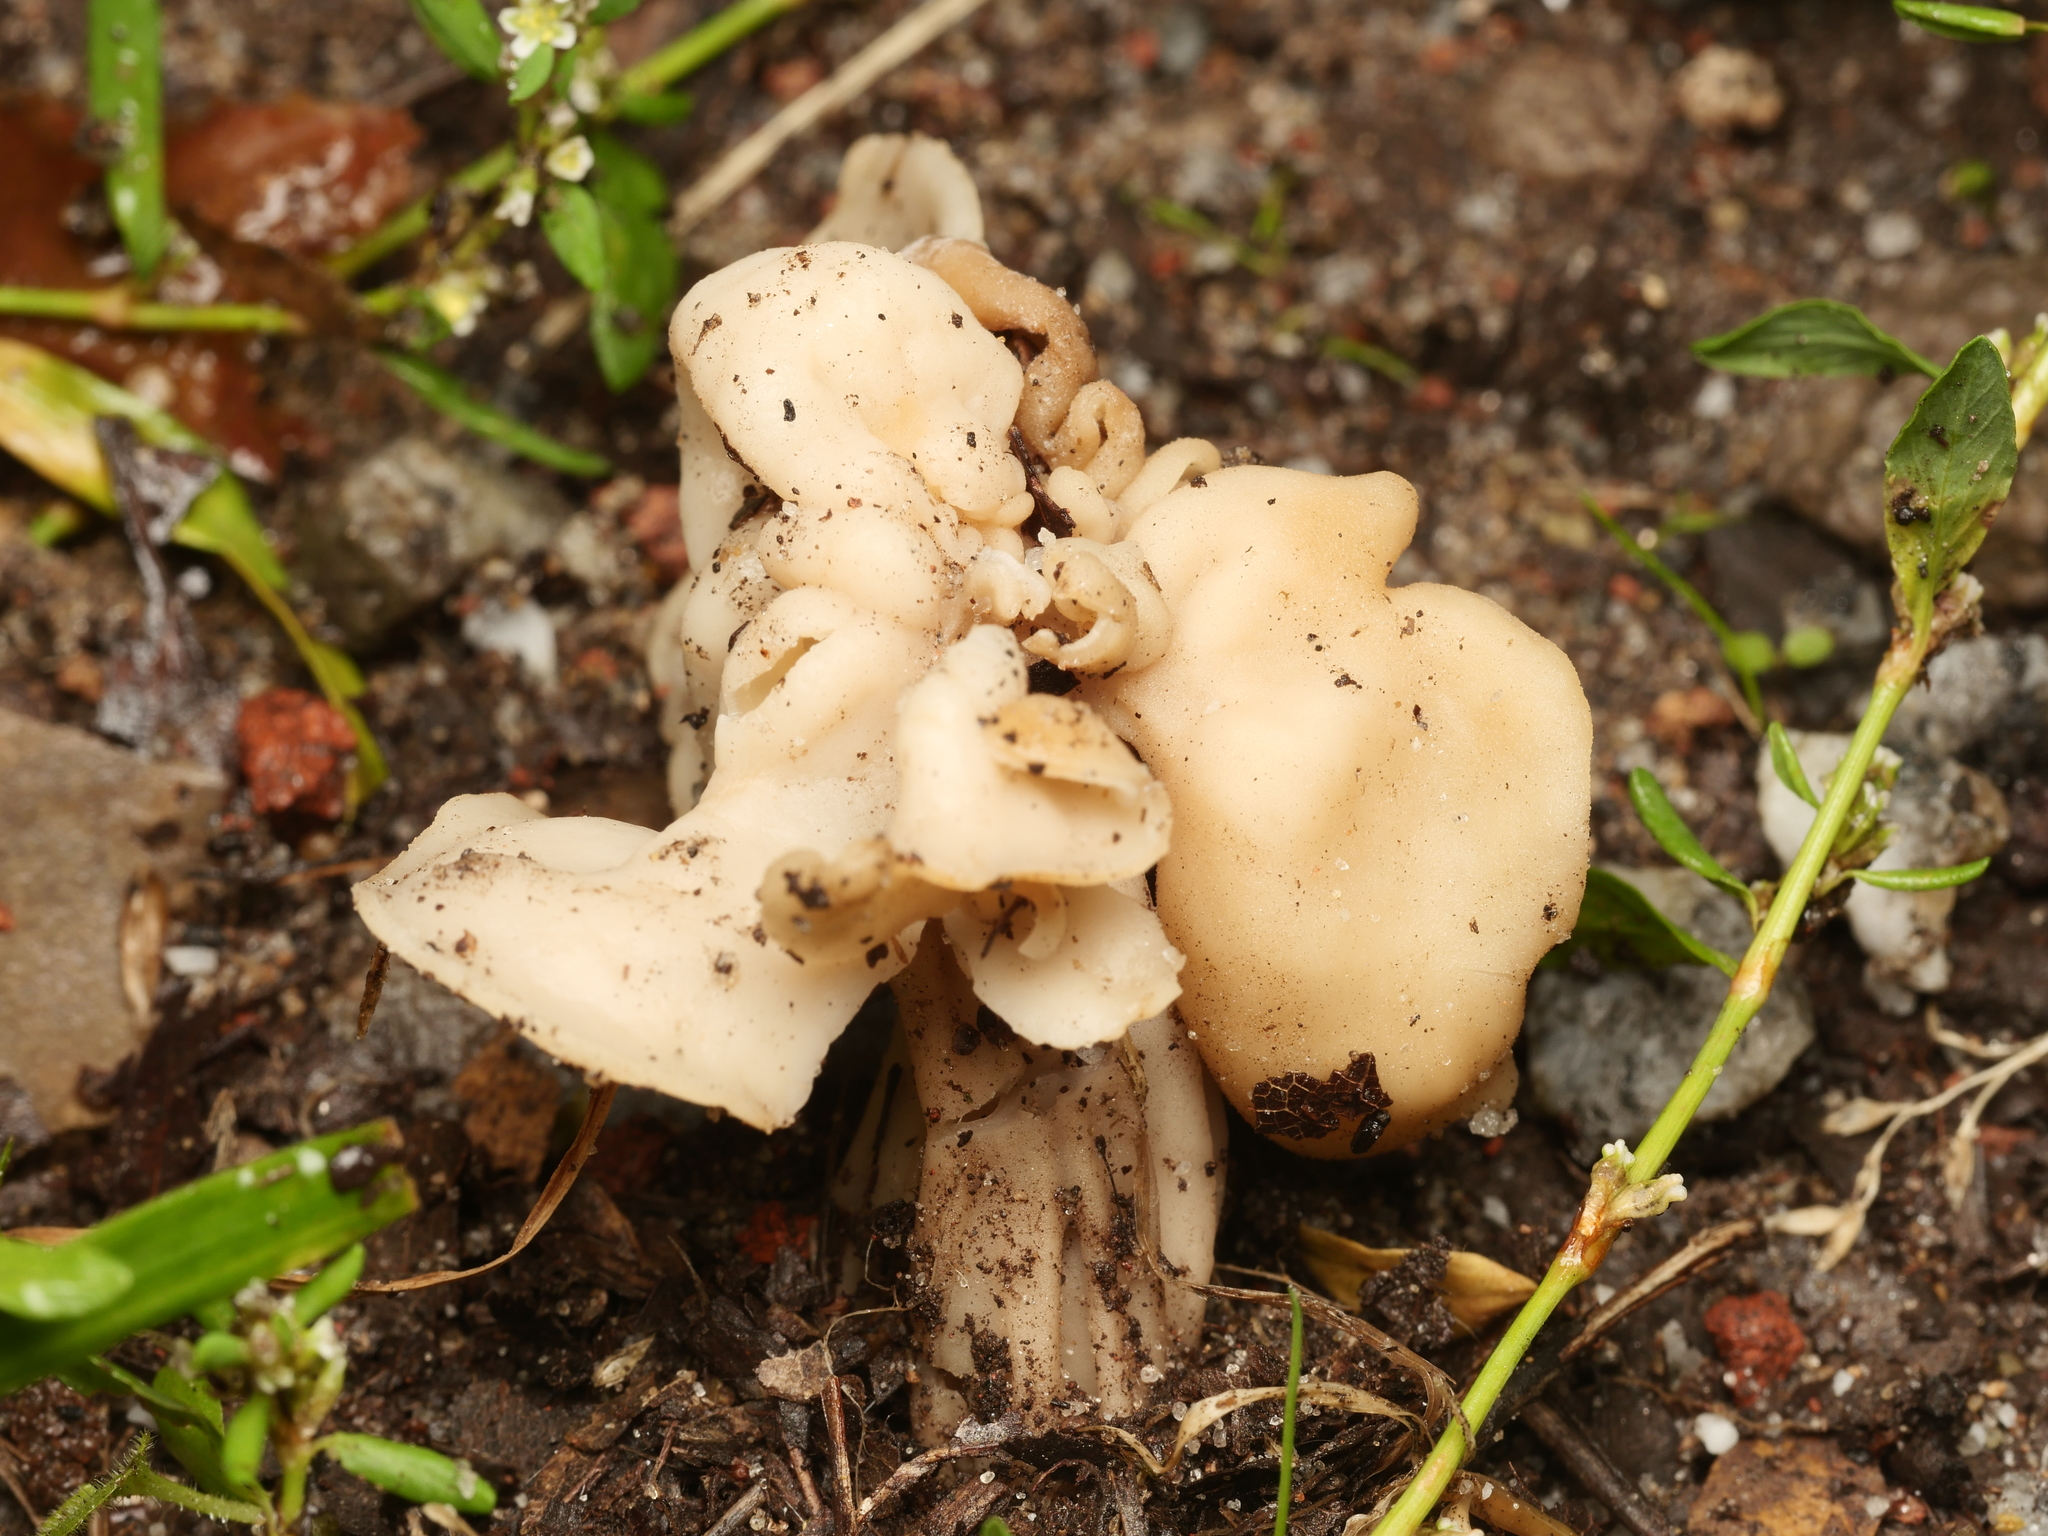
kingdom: Fungi
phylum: Ascomycota
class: Pezizomycetes
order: Pezizales
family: Helvellaceae
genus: Helvella
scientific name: Helvella crispa
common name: White saddle
